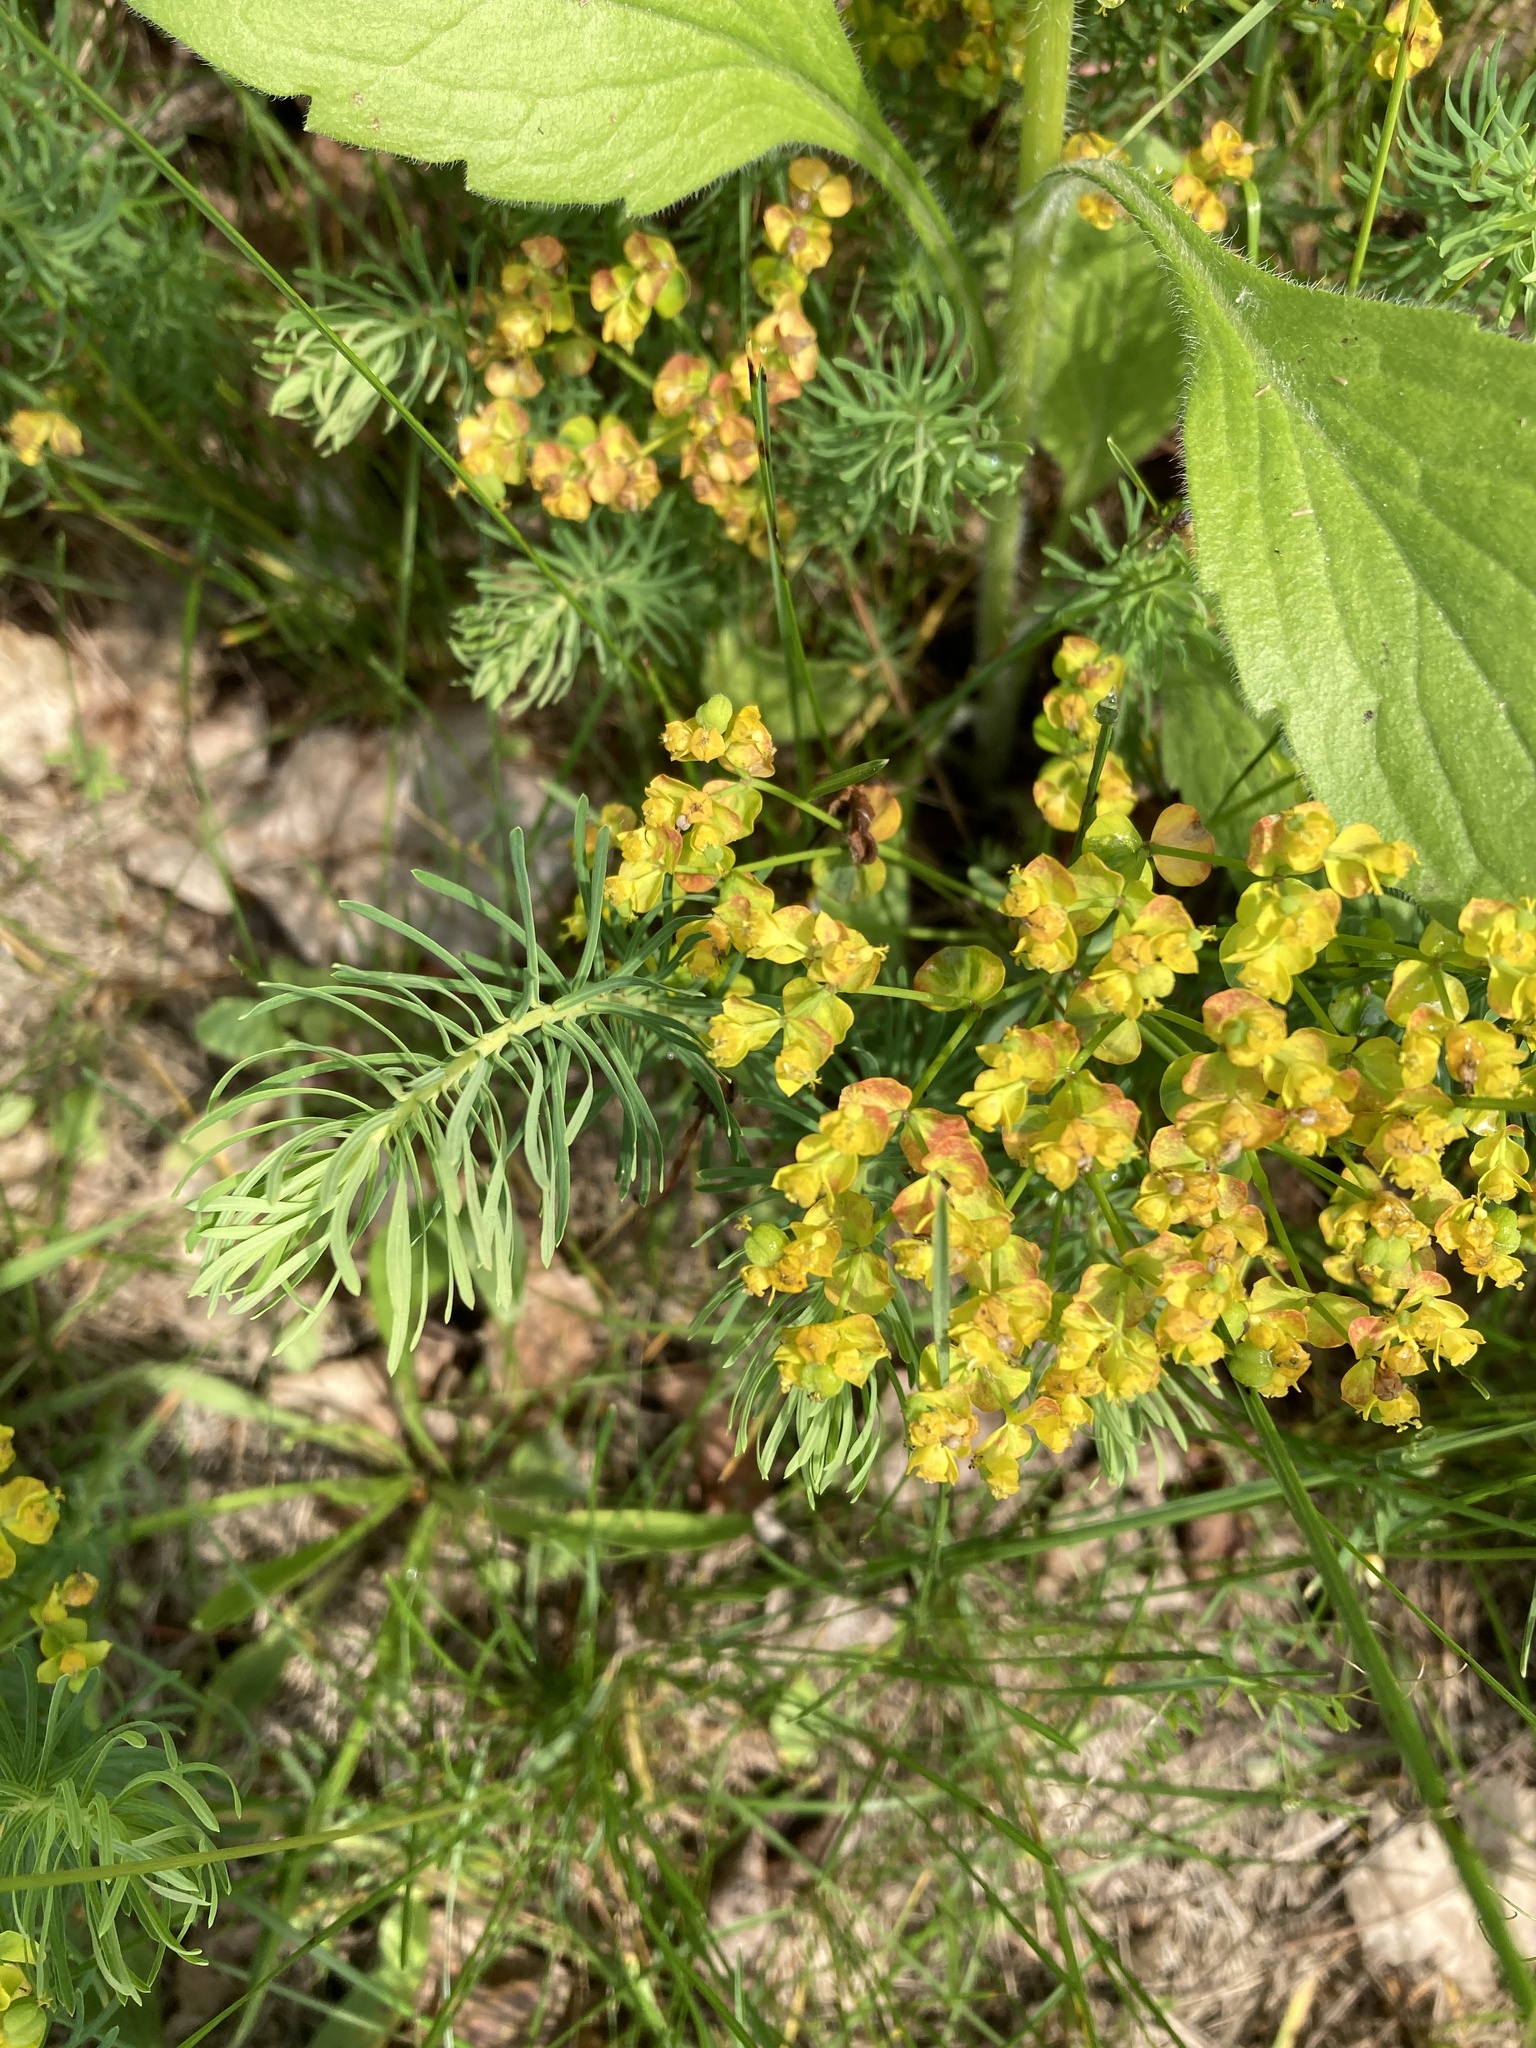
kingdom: Plantae
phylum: Tracheophyta
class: Magnoliopsida
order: Malpighiales
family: Euphorbiaceae
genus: Euphorbia
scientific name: Euphorbia cyparissias
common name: Cypress spurge
